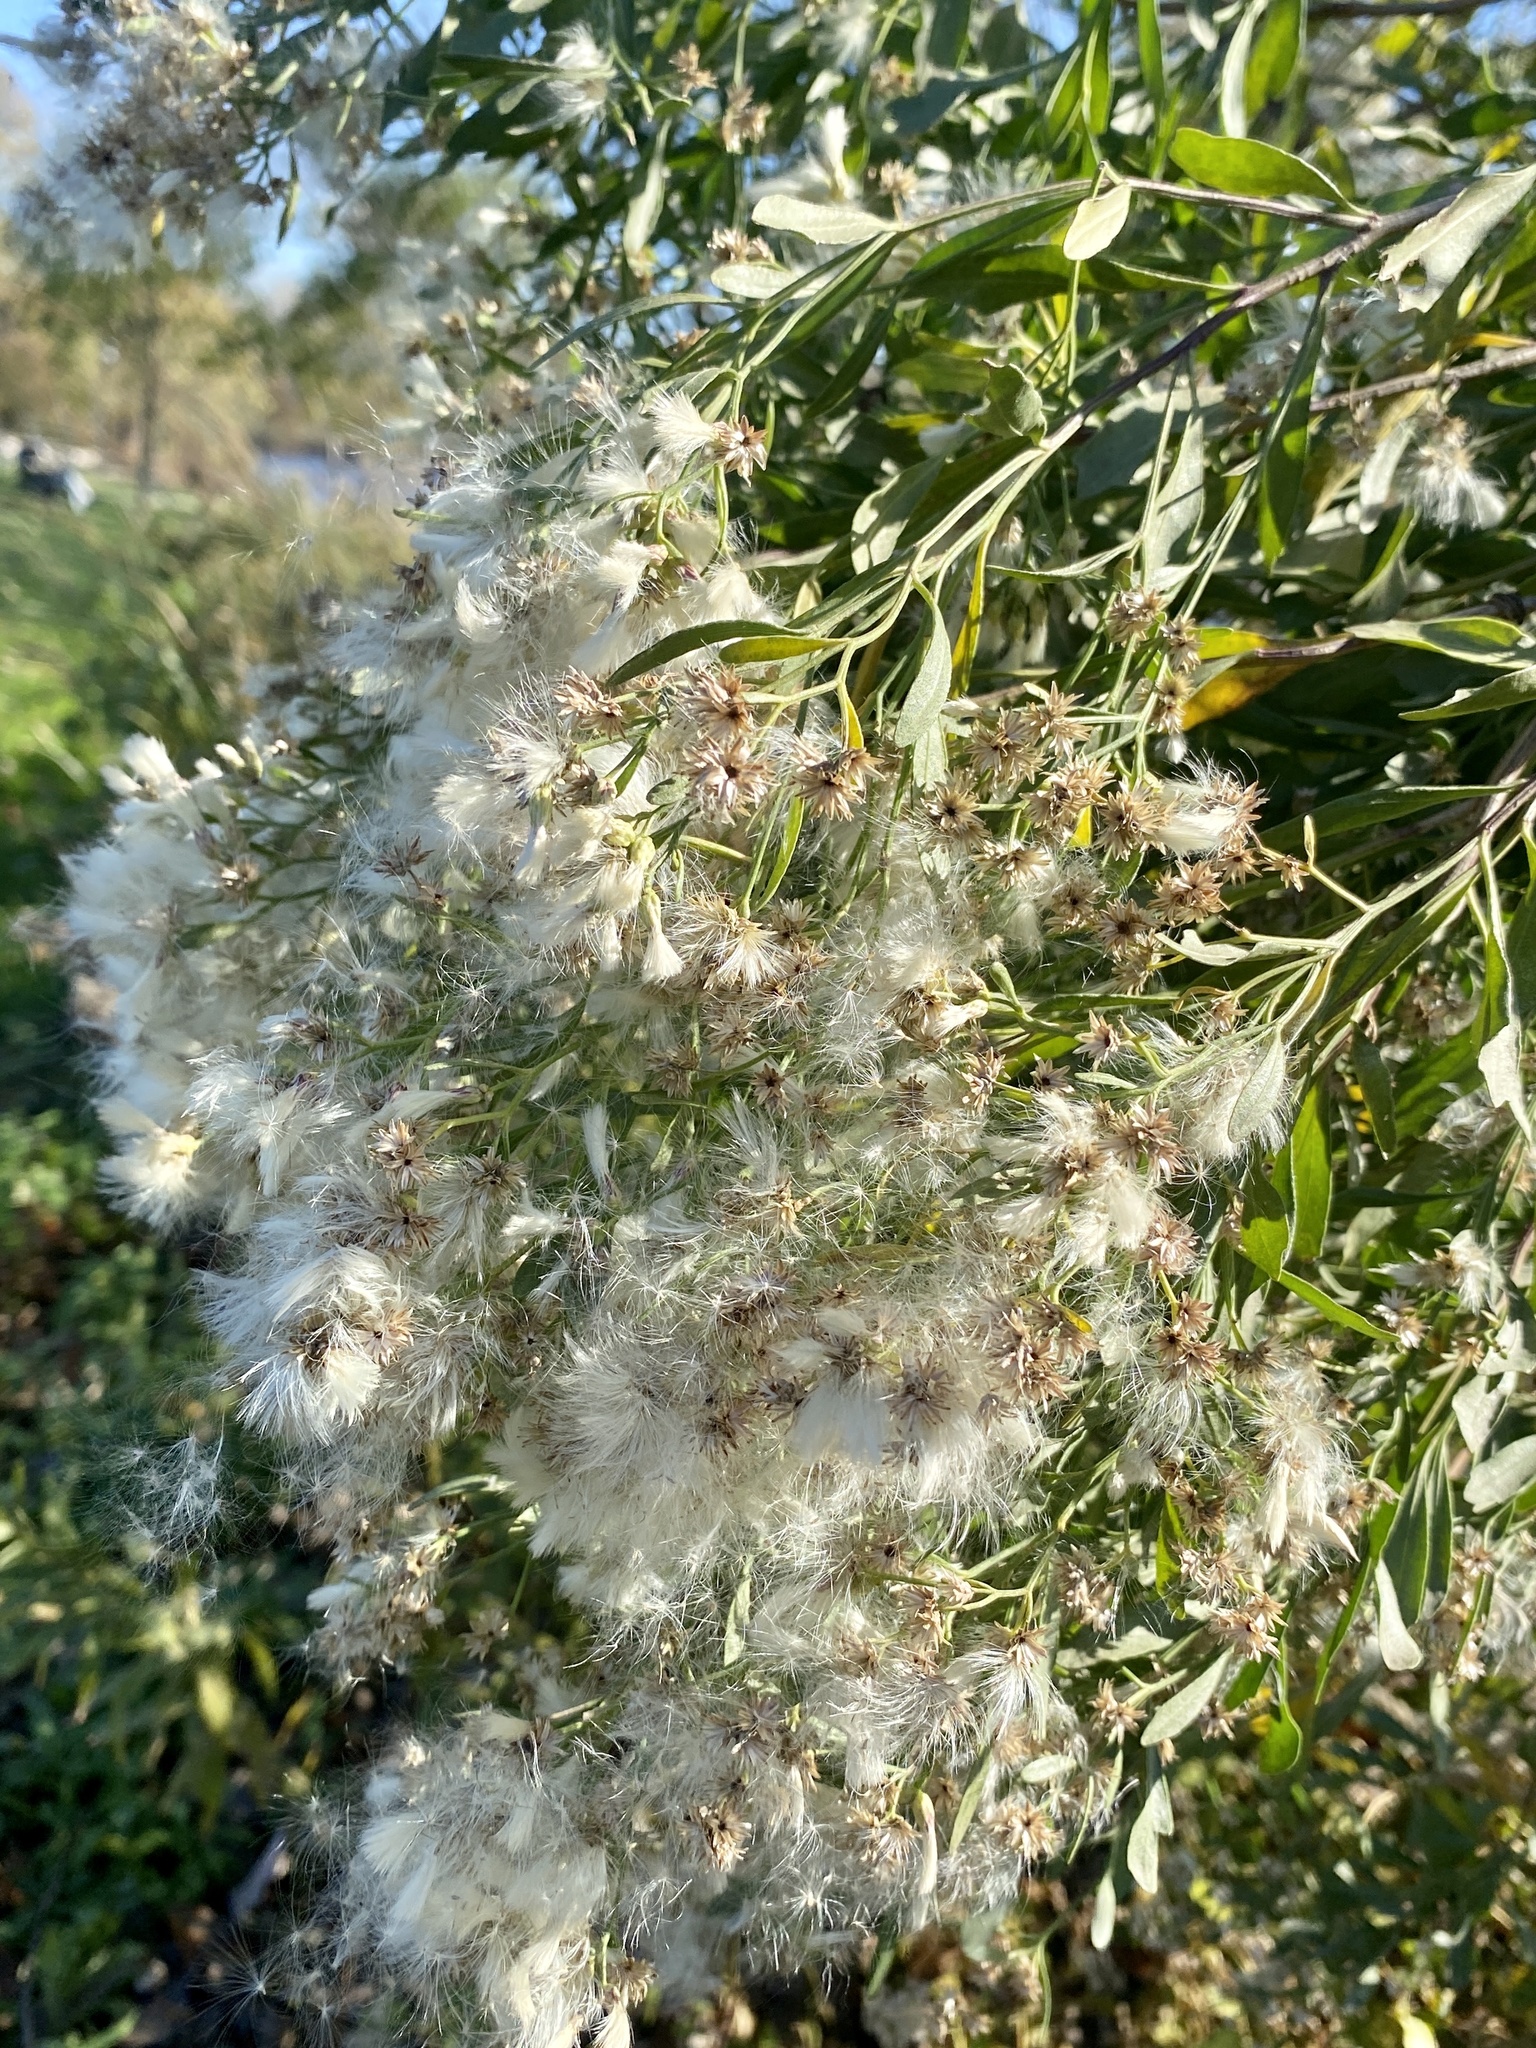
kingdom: Plantae
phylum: Tracheophyta
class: Magnoliopsida
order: Asterales
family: Asteraceae
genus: Baccharis
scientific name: Baccharis halimifolia
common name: Eastern baccharis
